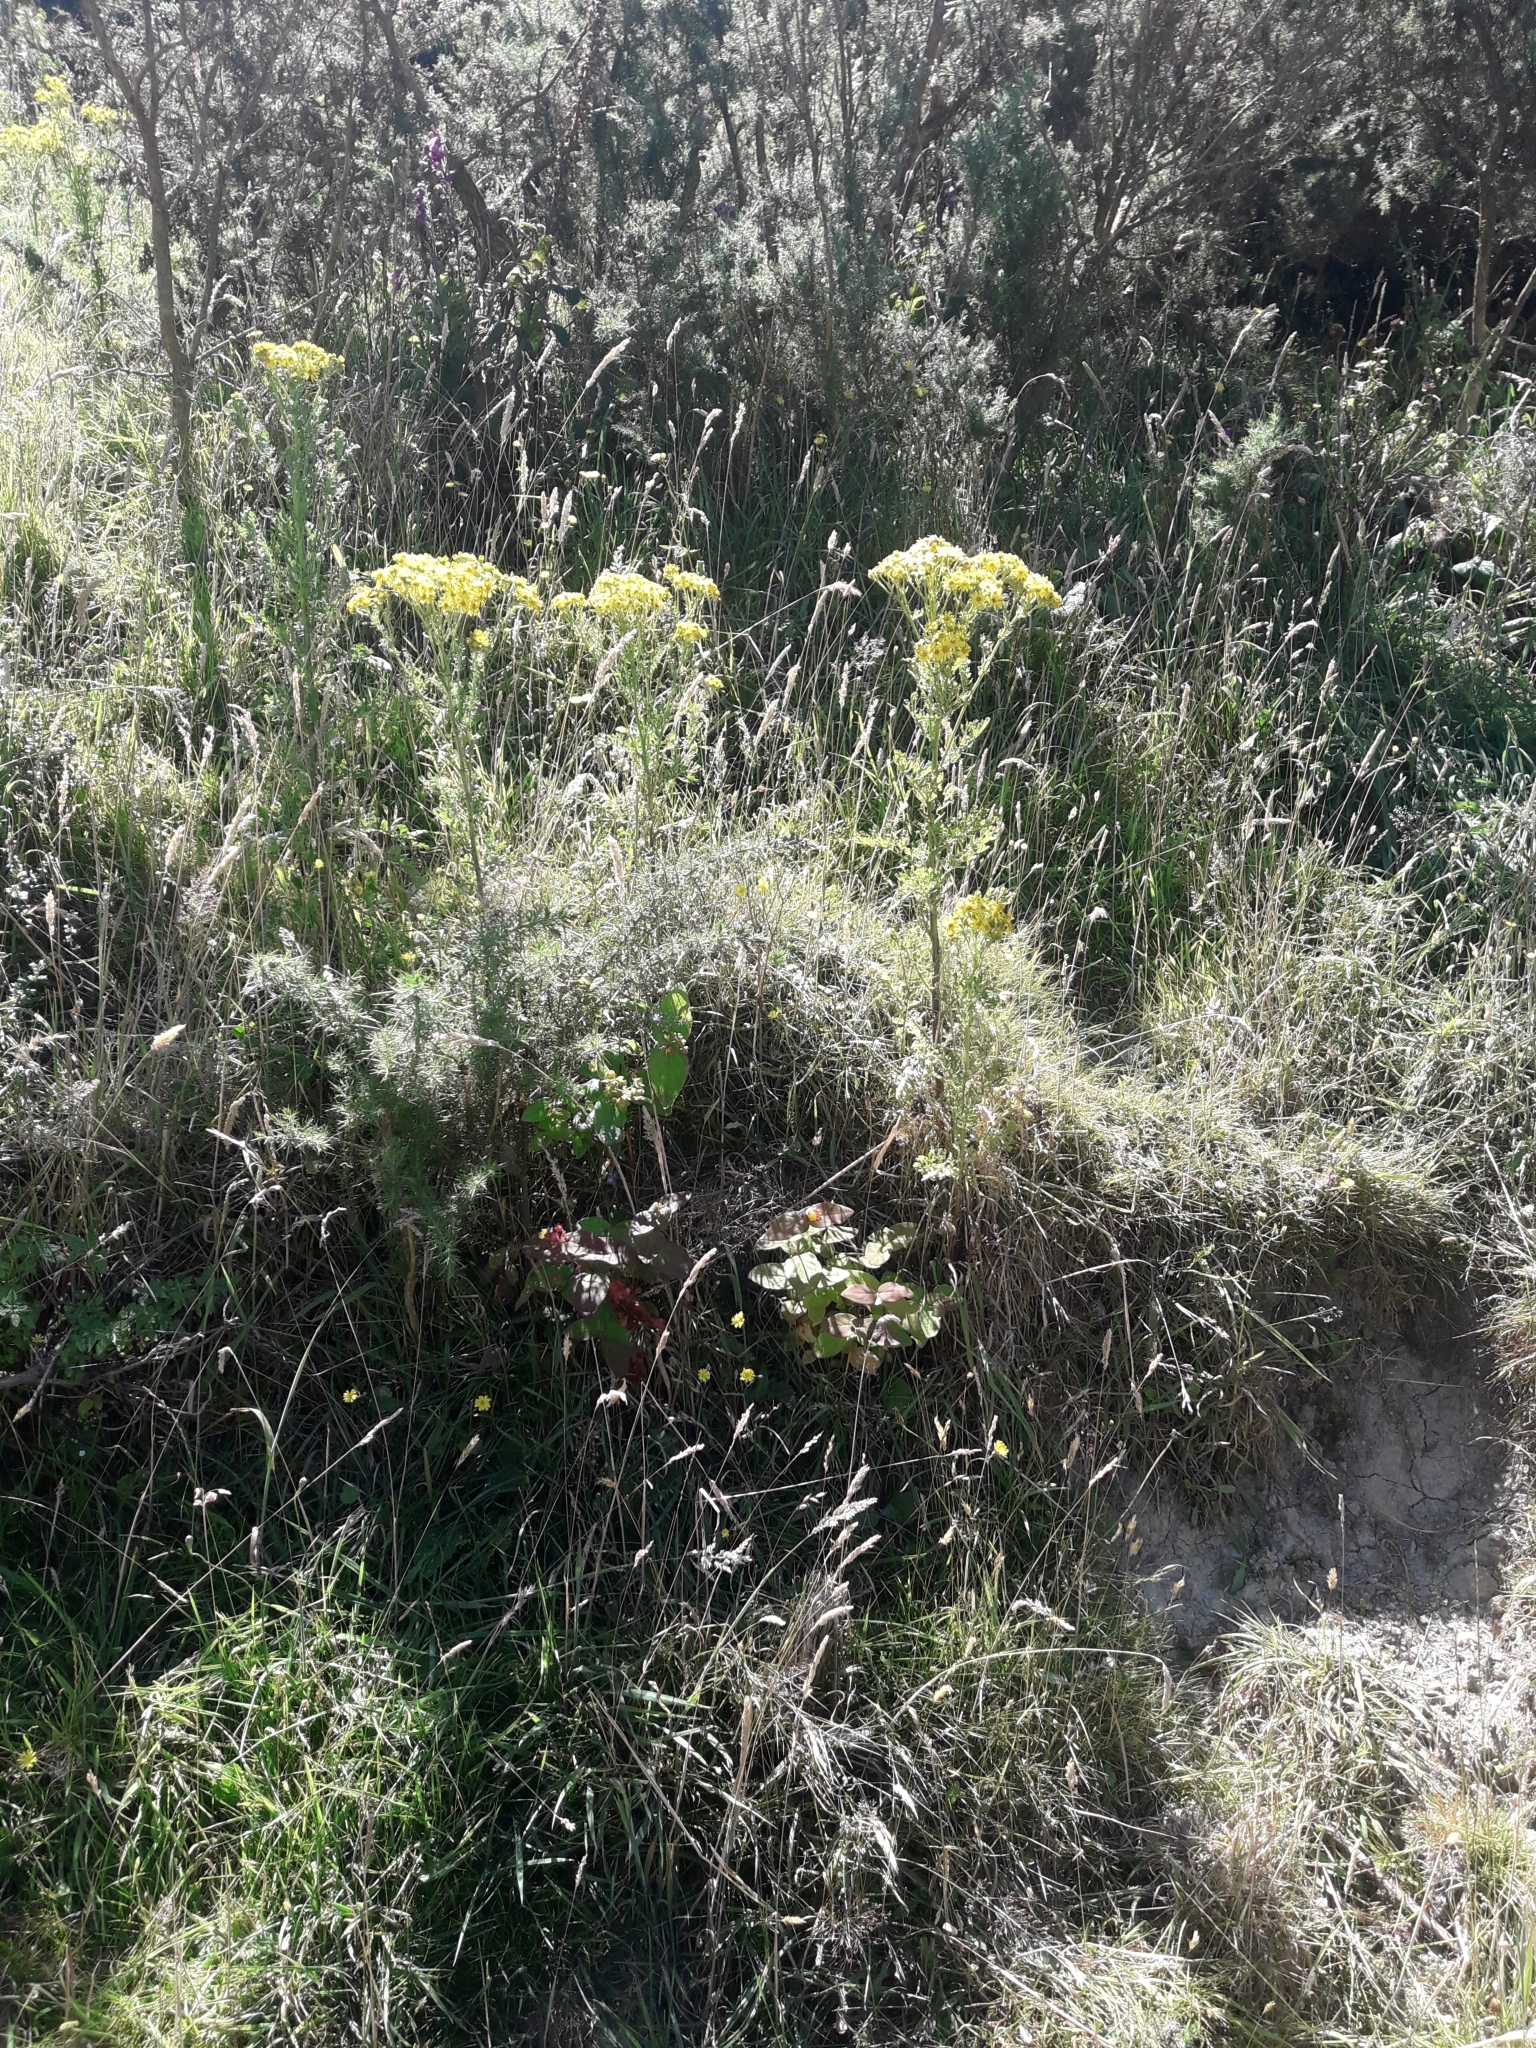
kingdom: Plantae
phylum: Tracheophyta
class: Magnoliopsida
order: Malpighiales
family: Hypericaceae
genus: Hypericum
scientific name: Hypericum androsaemum
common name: Sweet-amber
